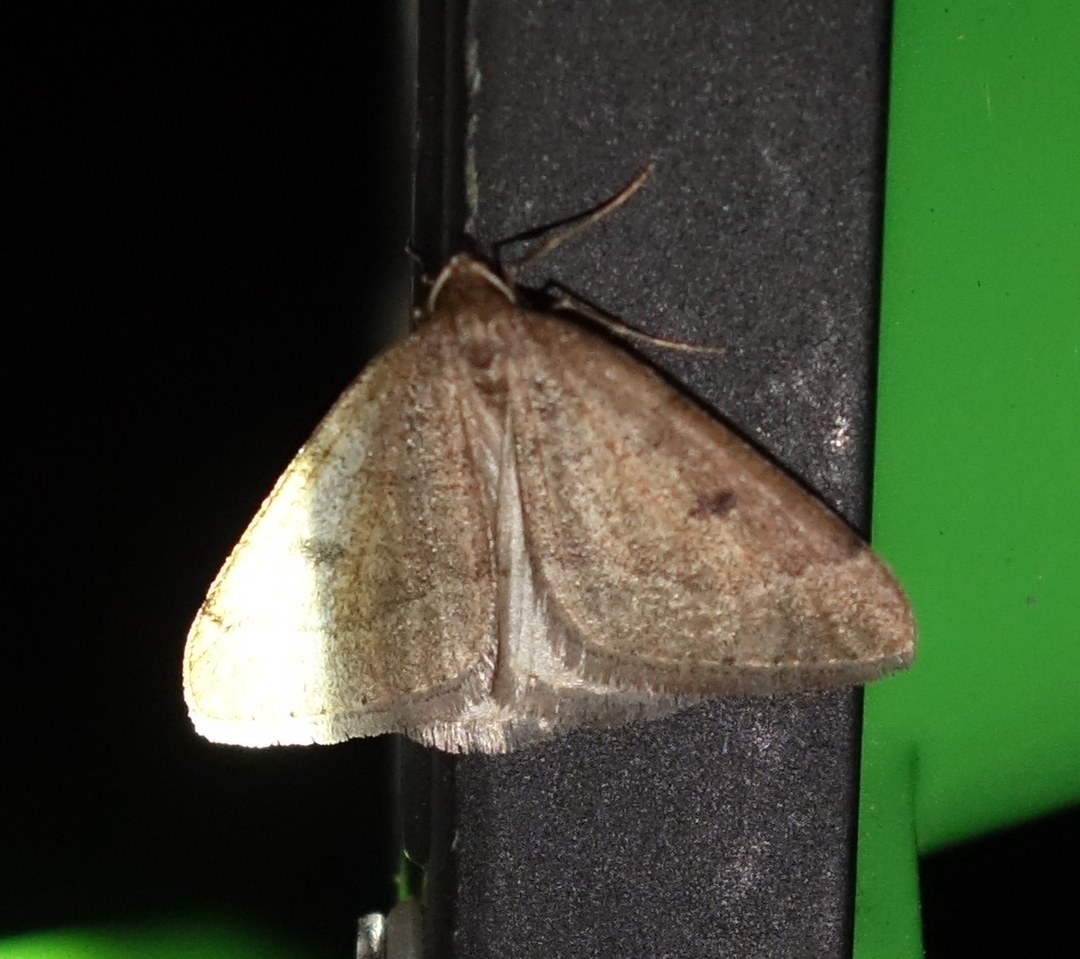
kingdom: Animalia
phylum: Arthropoda
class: Insecta
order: Lepidoptera
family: Geometridae
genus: Theria
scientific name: Theria primaria
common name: Early moth
